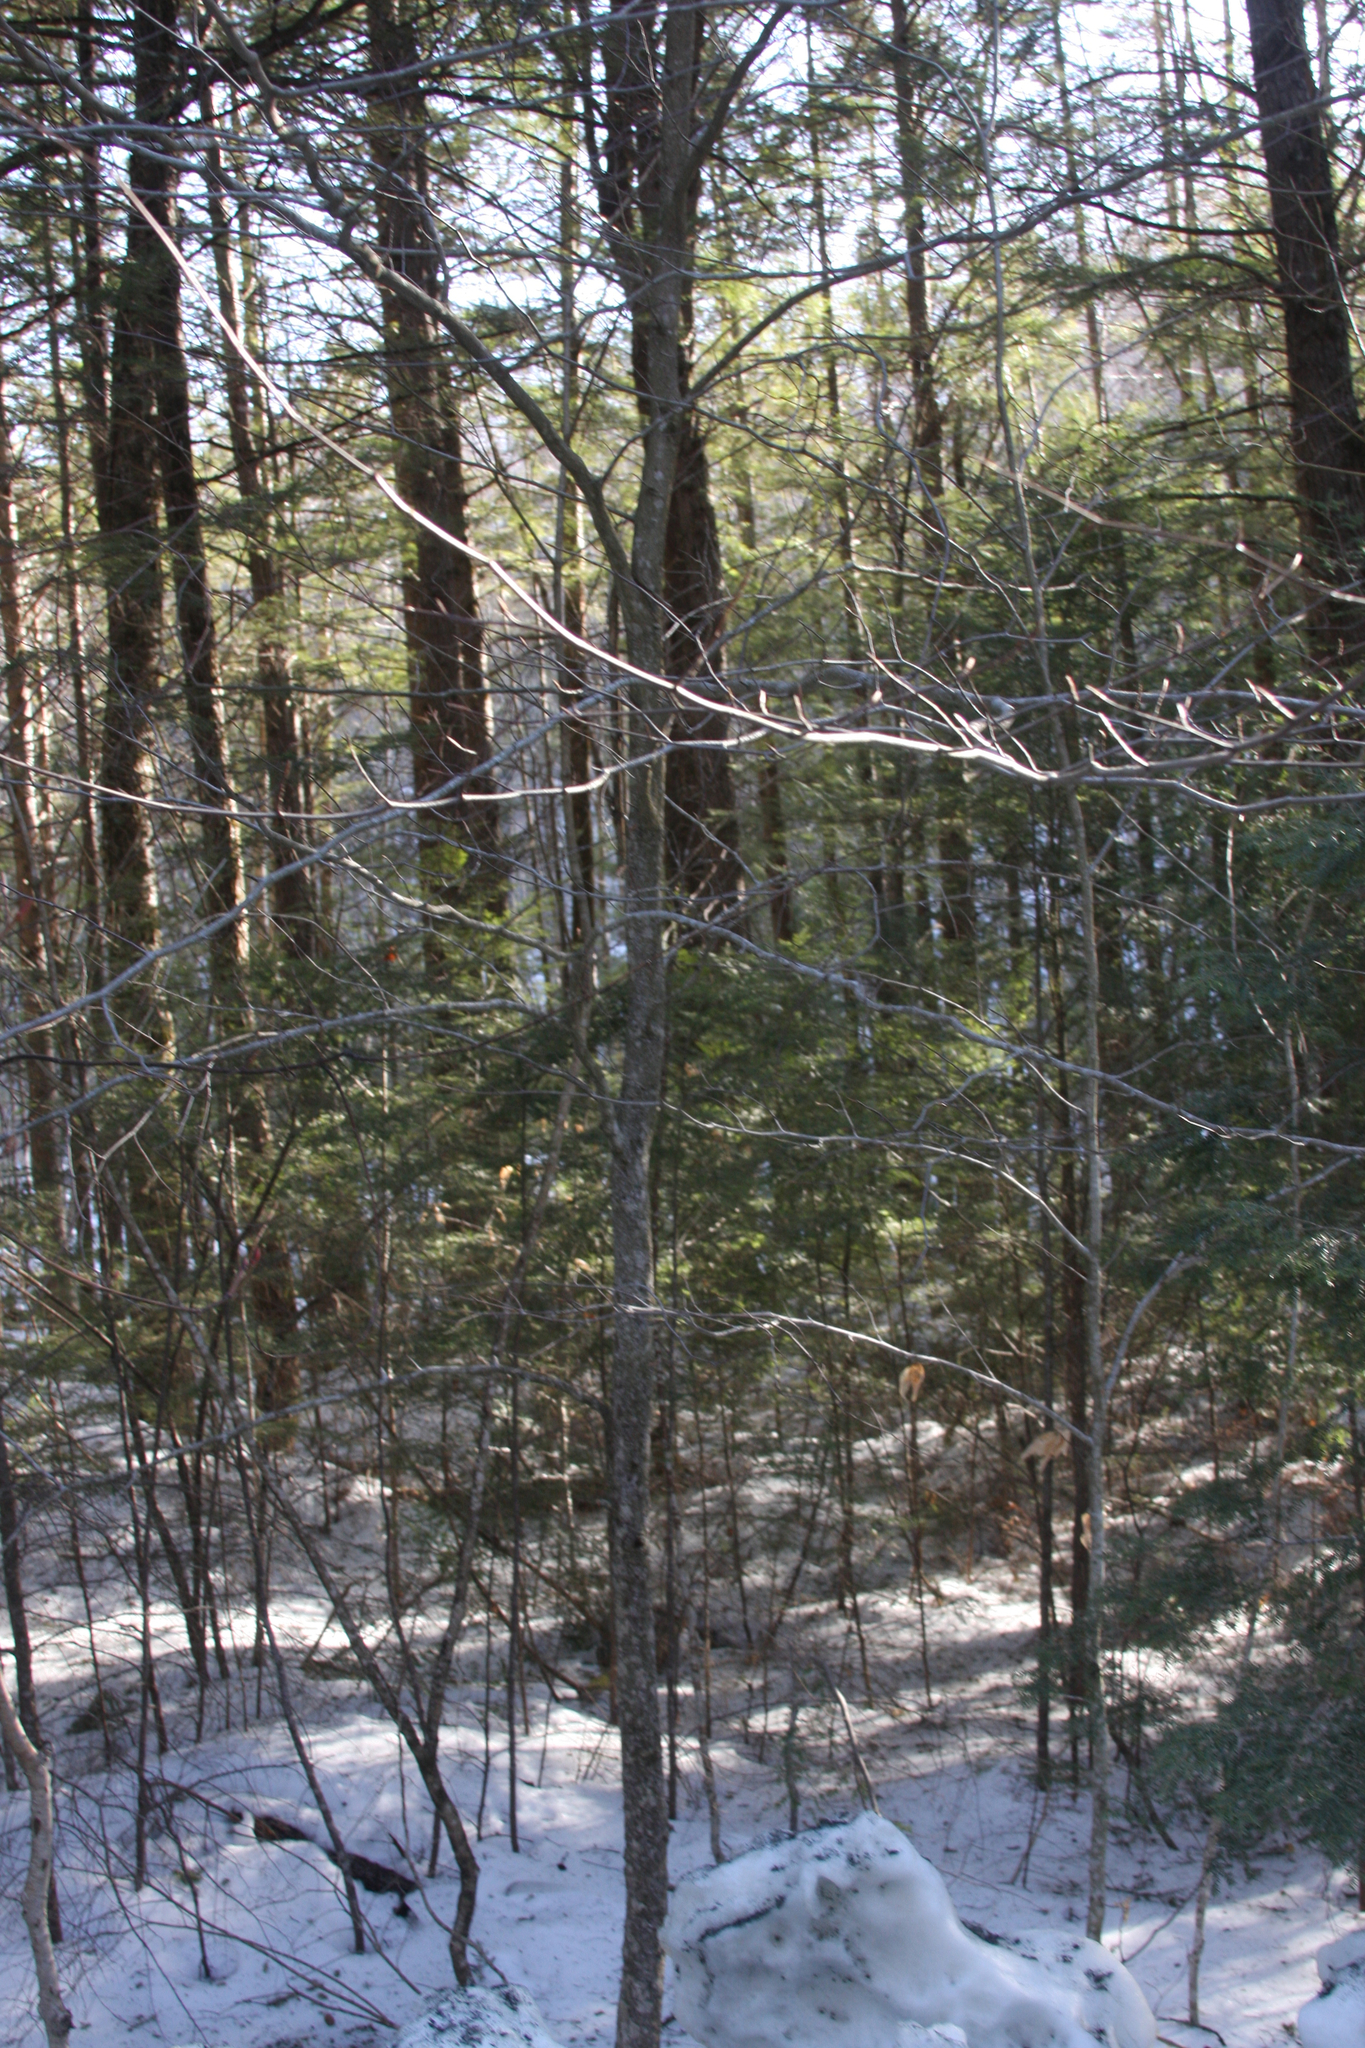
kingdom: Plantae
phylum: Tracheophyta
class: Magnoliopsida
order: Fagales
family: Fagaceae
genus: Fagus
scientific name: Fagus grandifolia
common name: American beech
